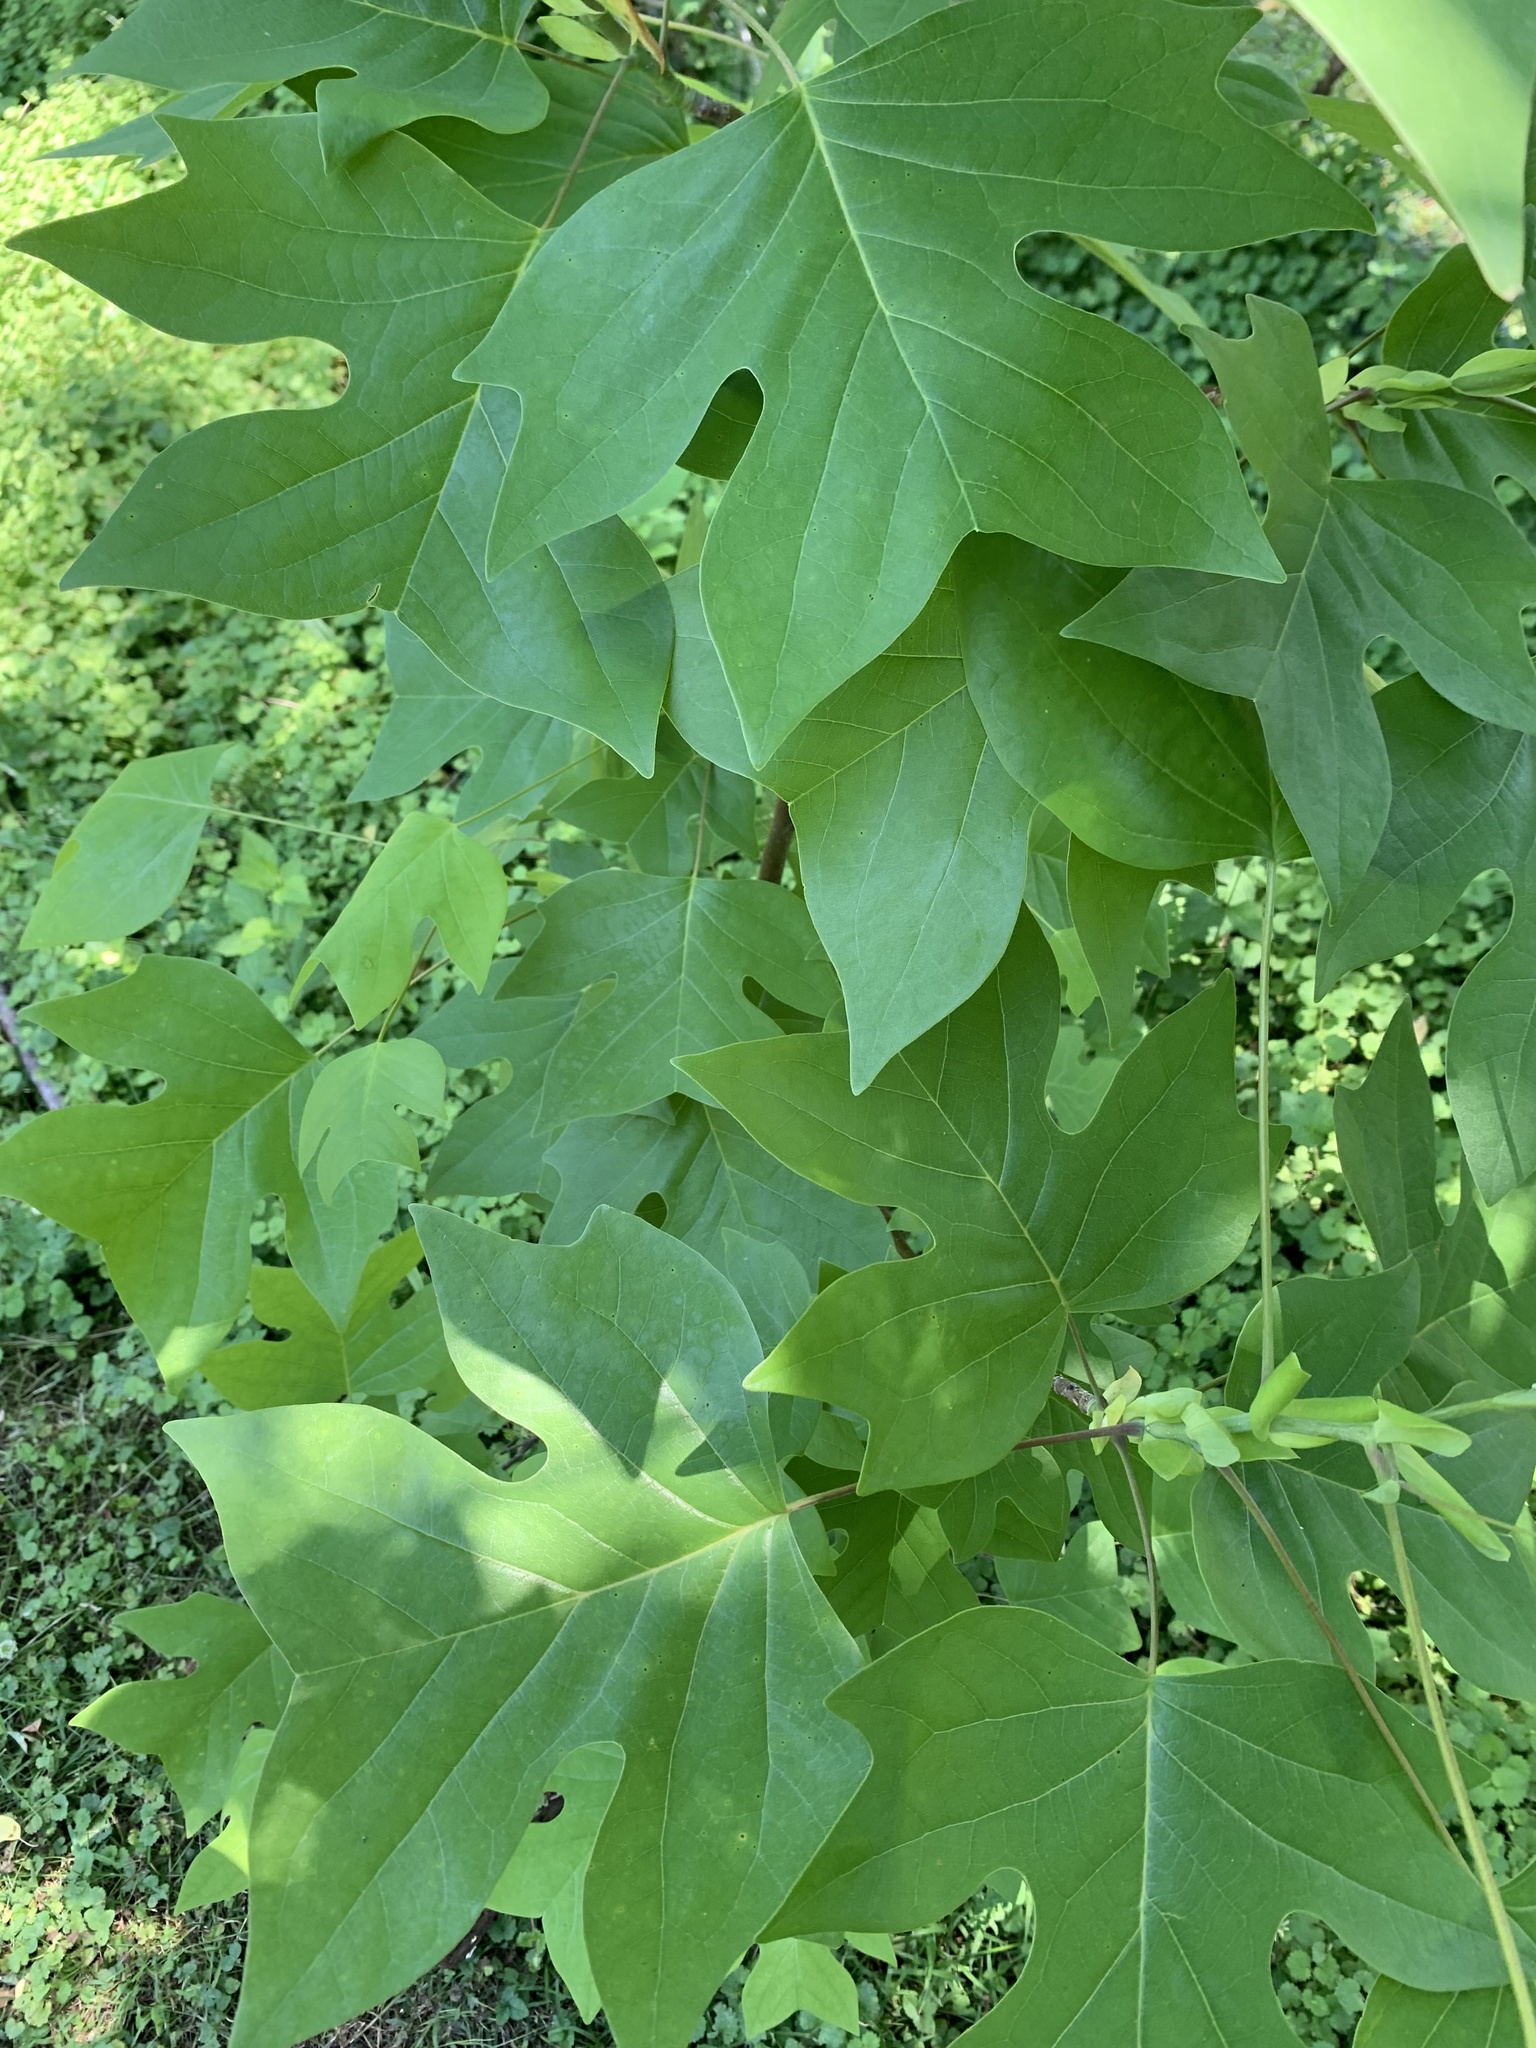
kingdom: Plantae
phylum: Tracheophyta
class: Magnoliopsida
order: Magnoliales
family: Magnoliaceae
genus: Liriodendron
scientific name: Liriodendron tulipifera
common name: Tulip tree
